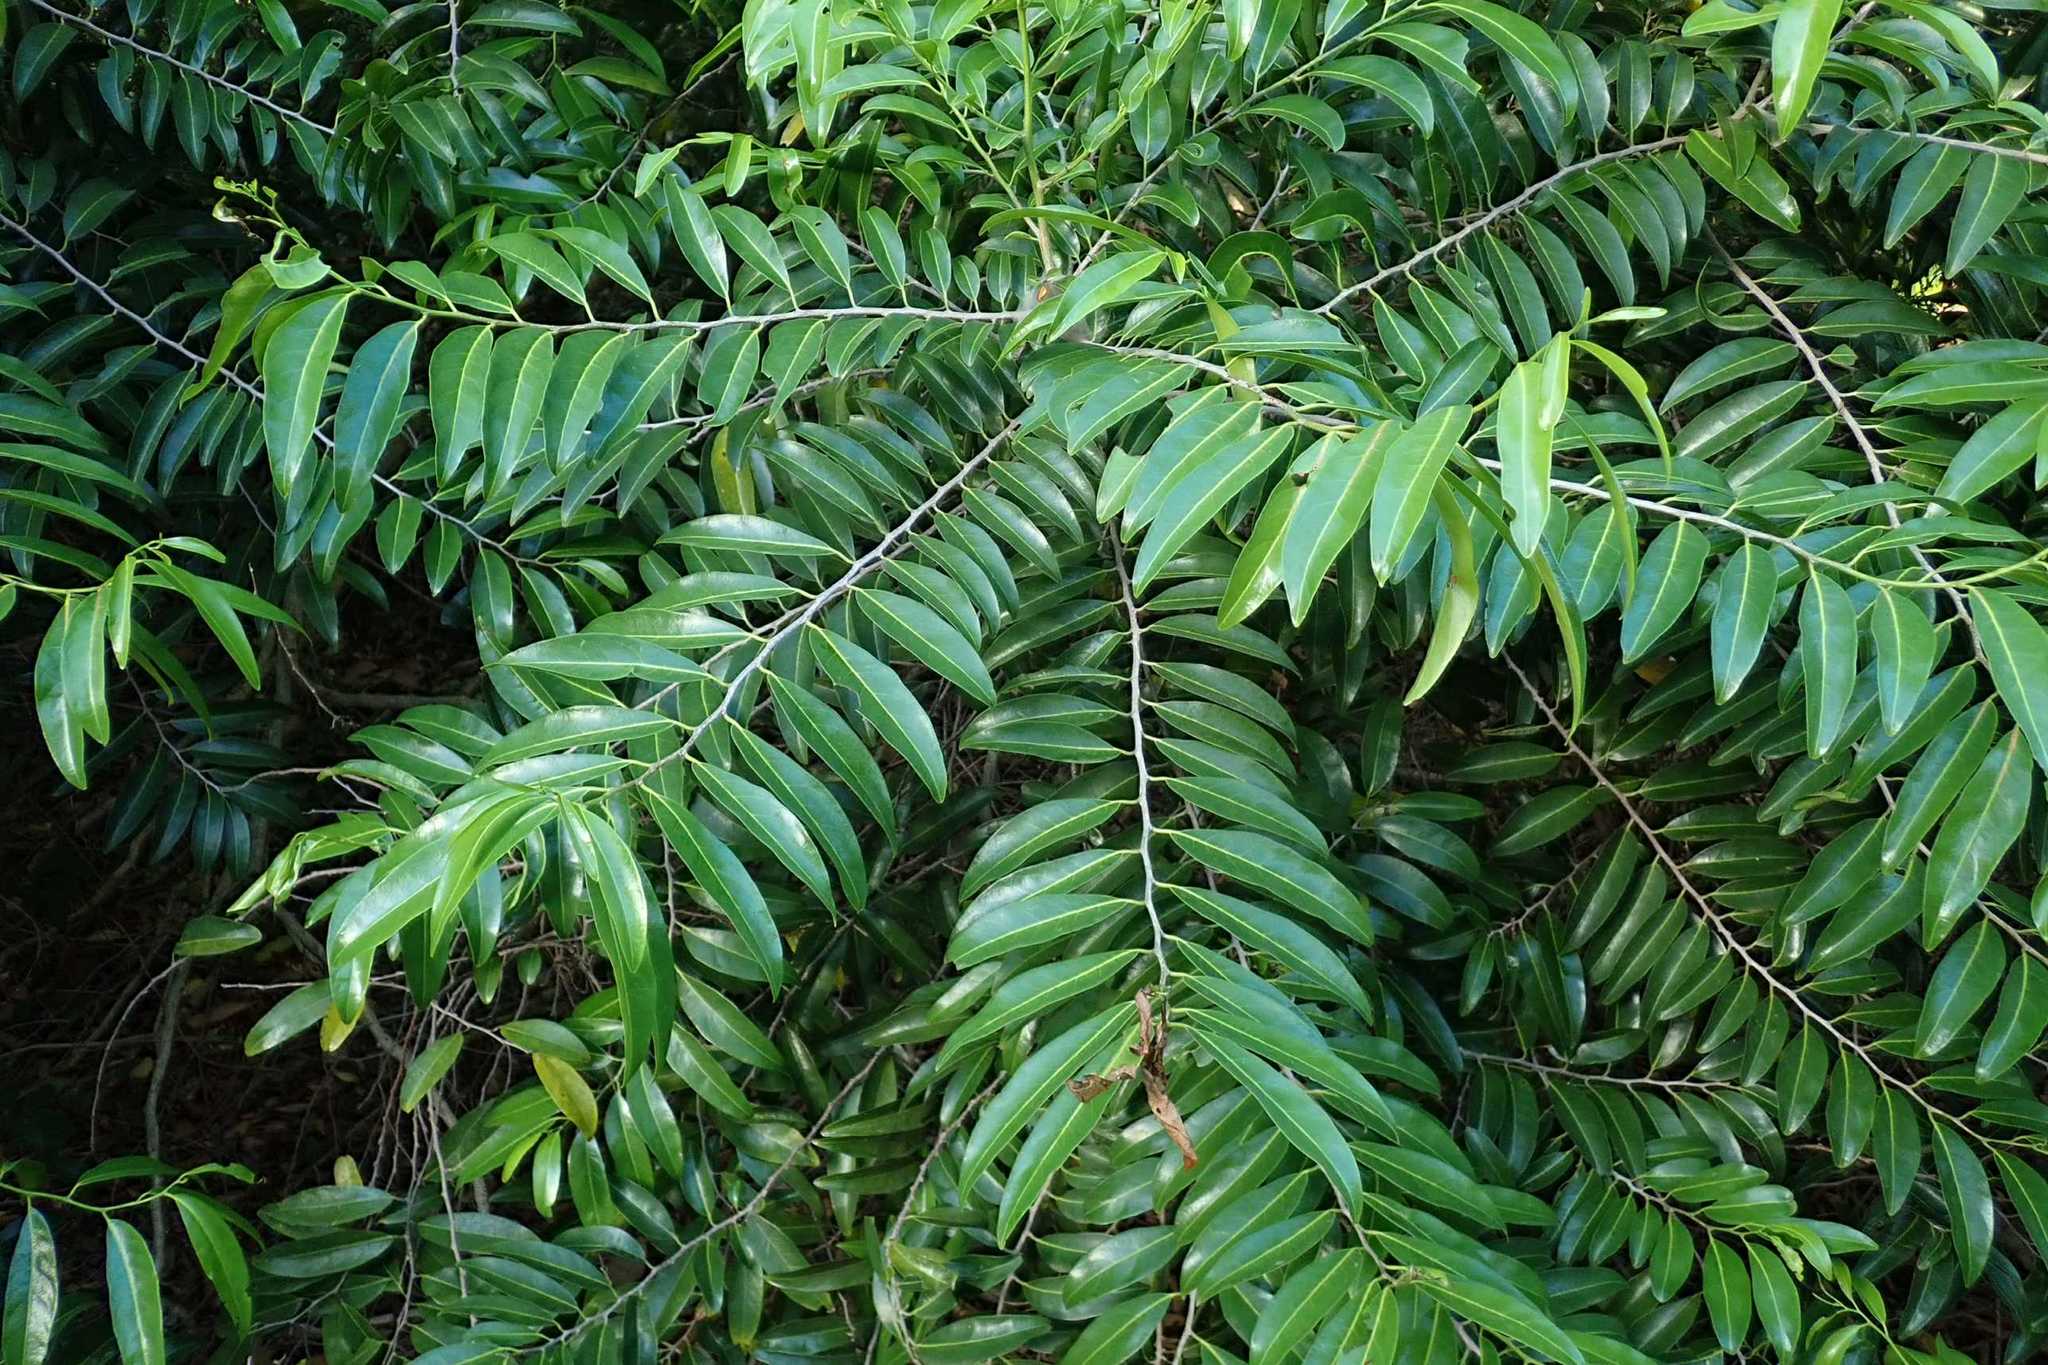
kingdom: Plantae
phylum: Tracheophyta
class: Magnoliopsida
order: Malpighiales
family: Salicaceae
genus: Casearia
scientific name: Casearia gladiiformis
